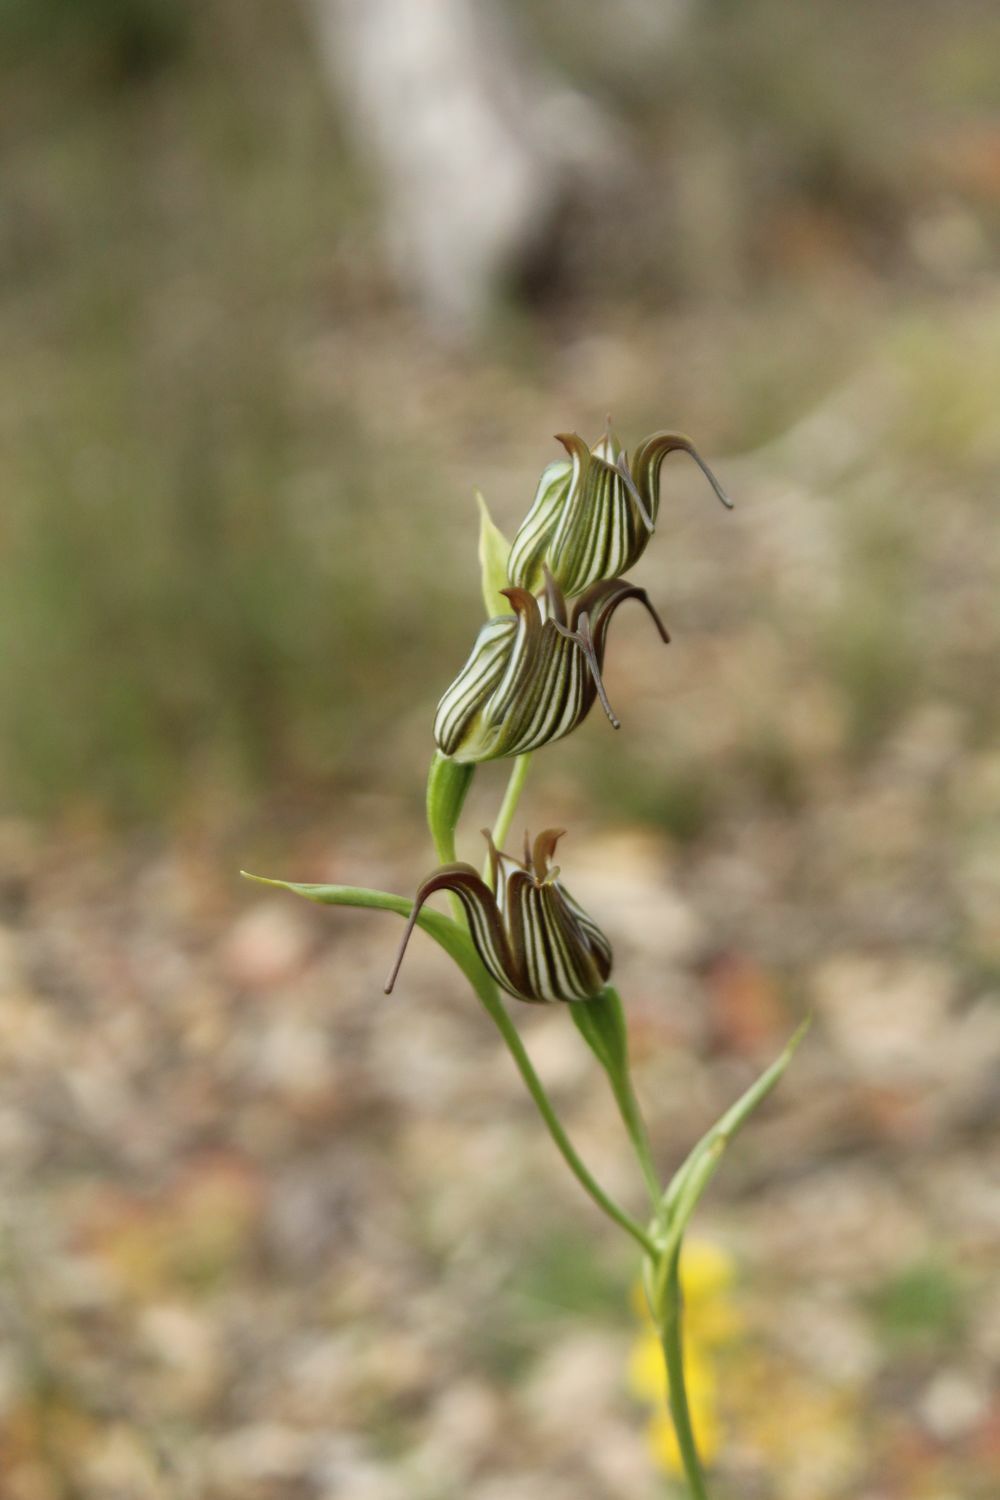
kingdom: Plantae
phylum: Tracheophyta
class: Liliopsida
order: Asparagales
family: Orchidaceae
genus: Pterostylis
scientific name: Pterostylis recurva
